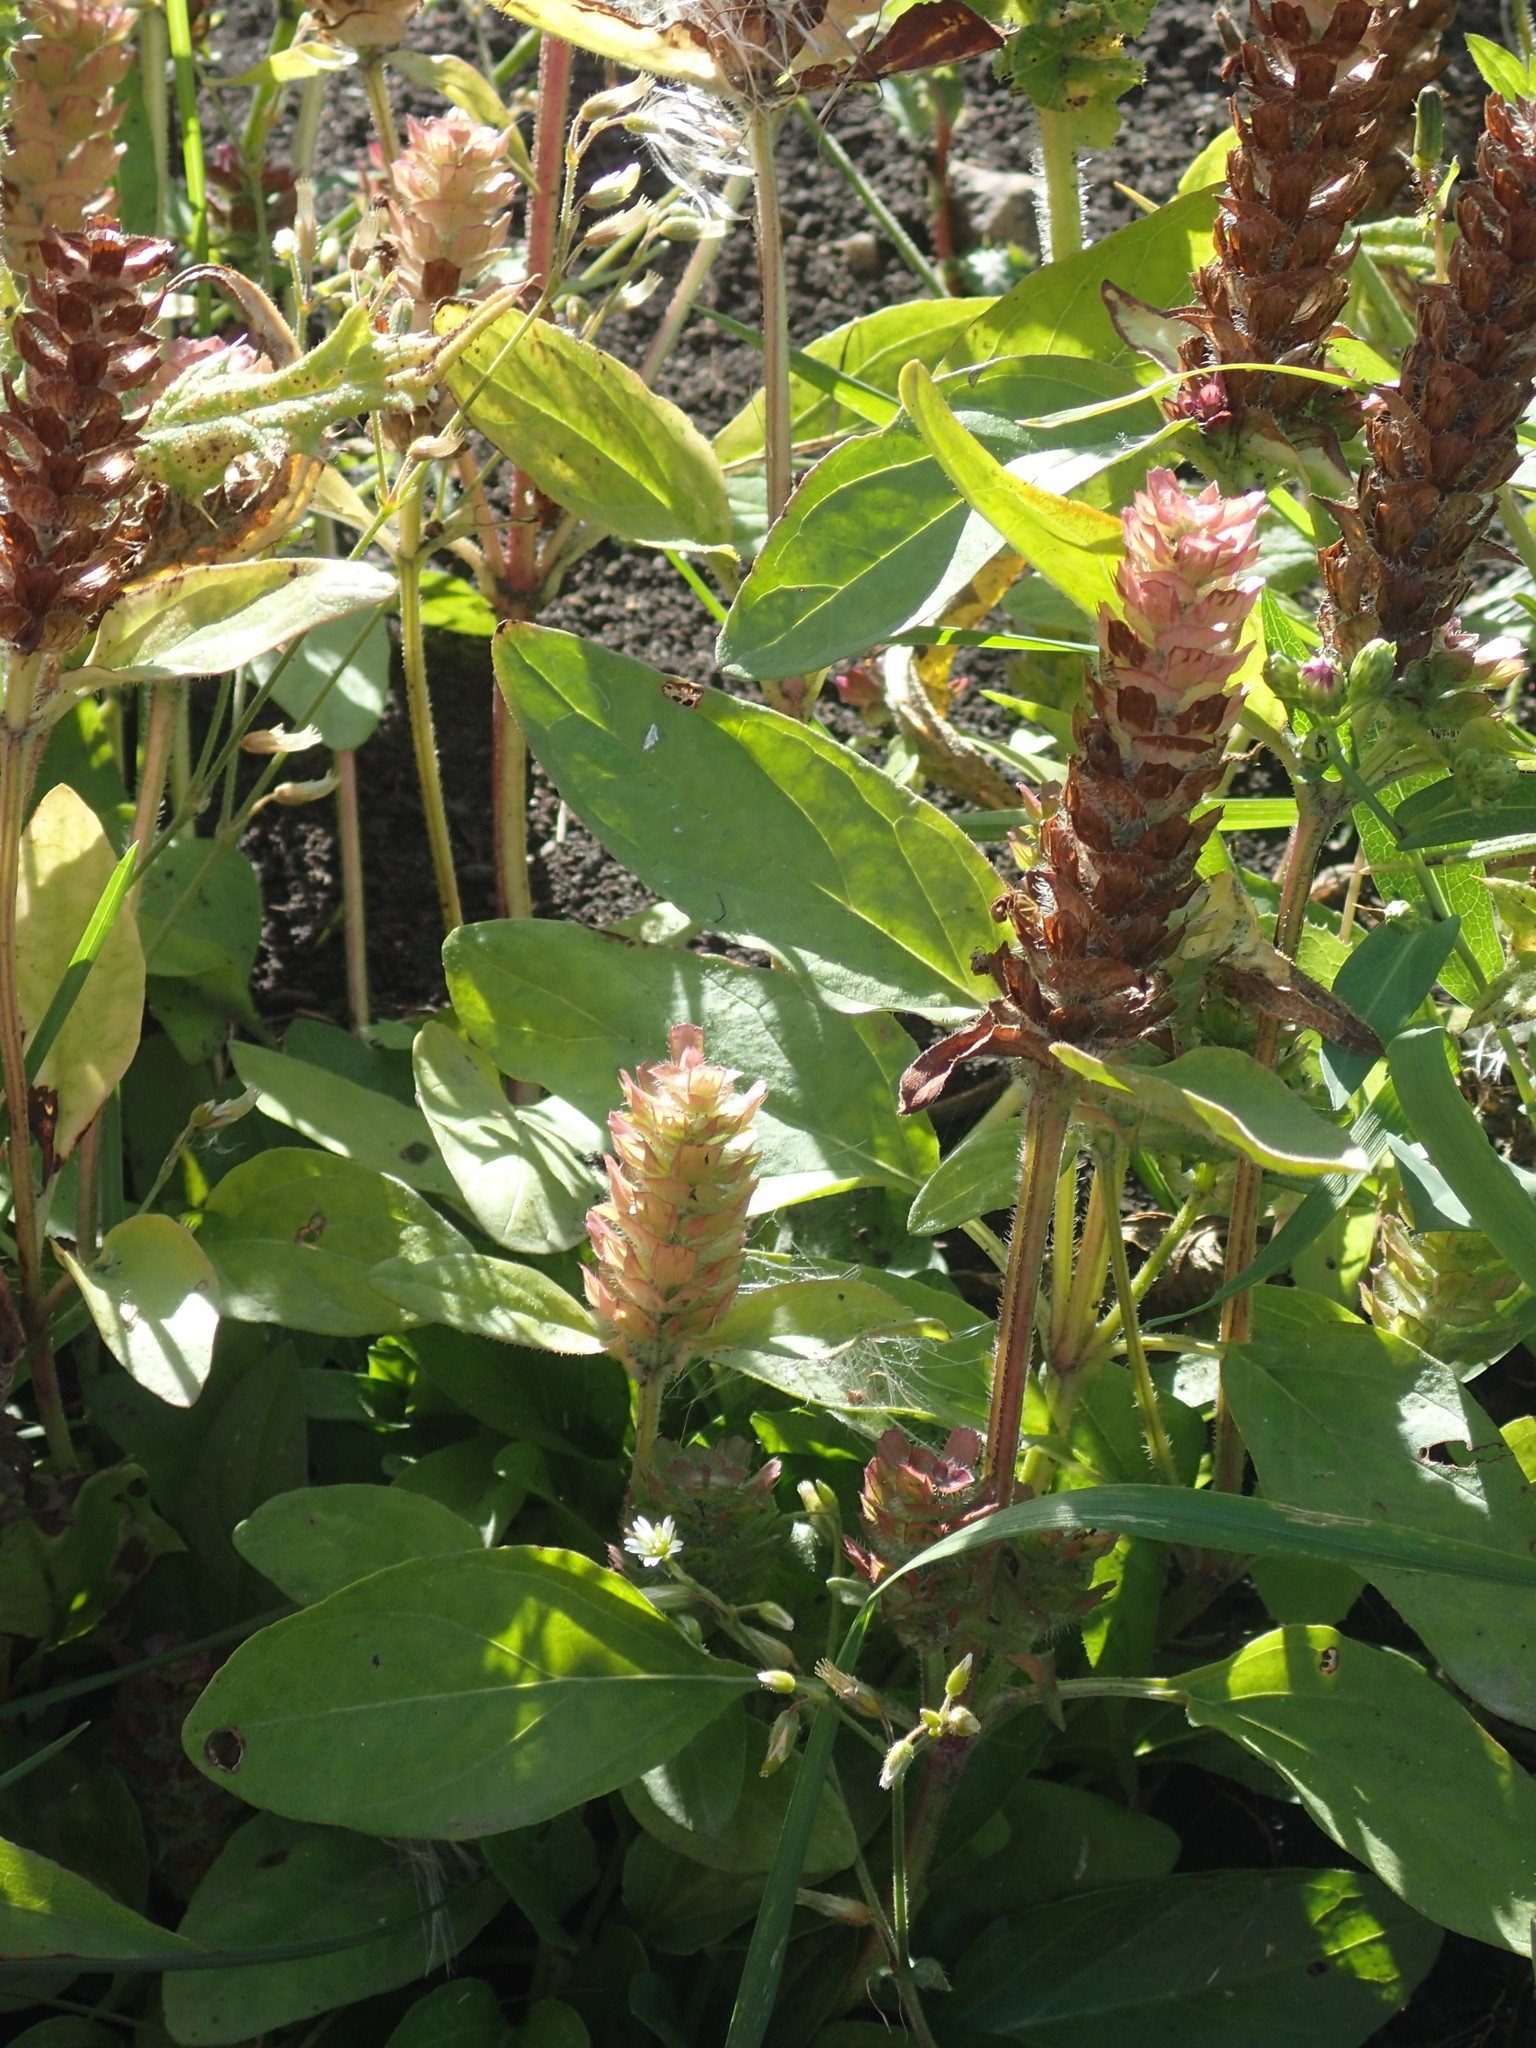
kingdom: Plantae
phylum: Tracheophyta
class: Magnoliopsida
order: Lamiales
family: Lamiaceae
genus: Prunella
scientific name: Prunella vulgaris
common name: Heal-all
